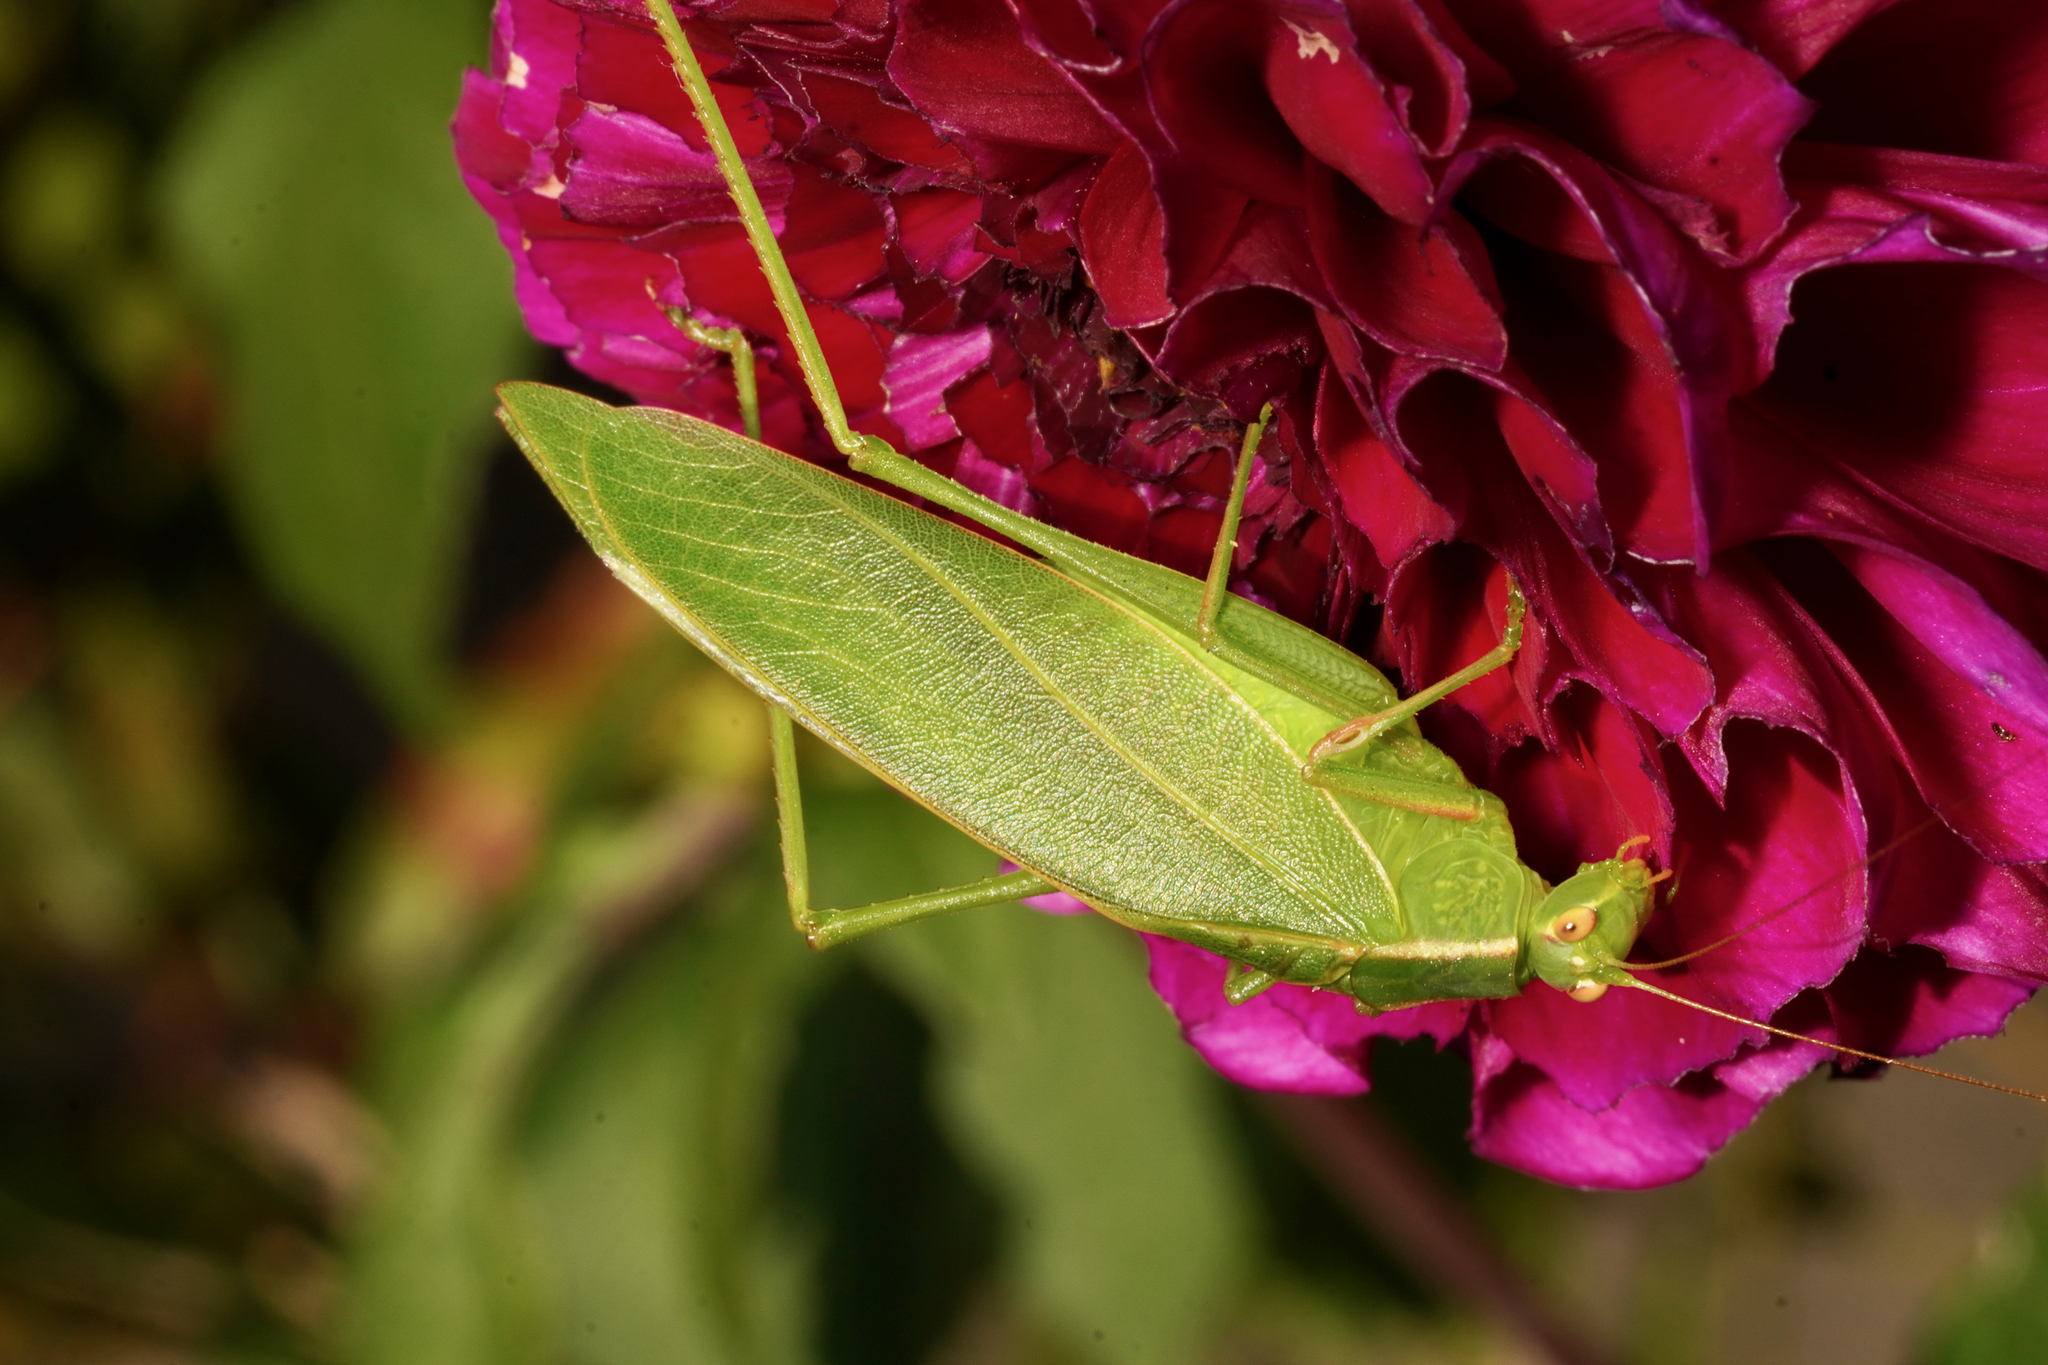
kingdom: Animalia
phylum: Arthropoda
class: Insecta
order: Orthoptera
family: Tettigoniidae
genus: Caedicia
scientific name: Caedicia simplex
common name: Common garden katydid
